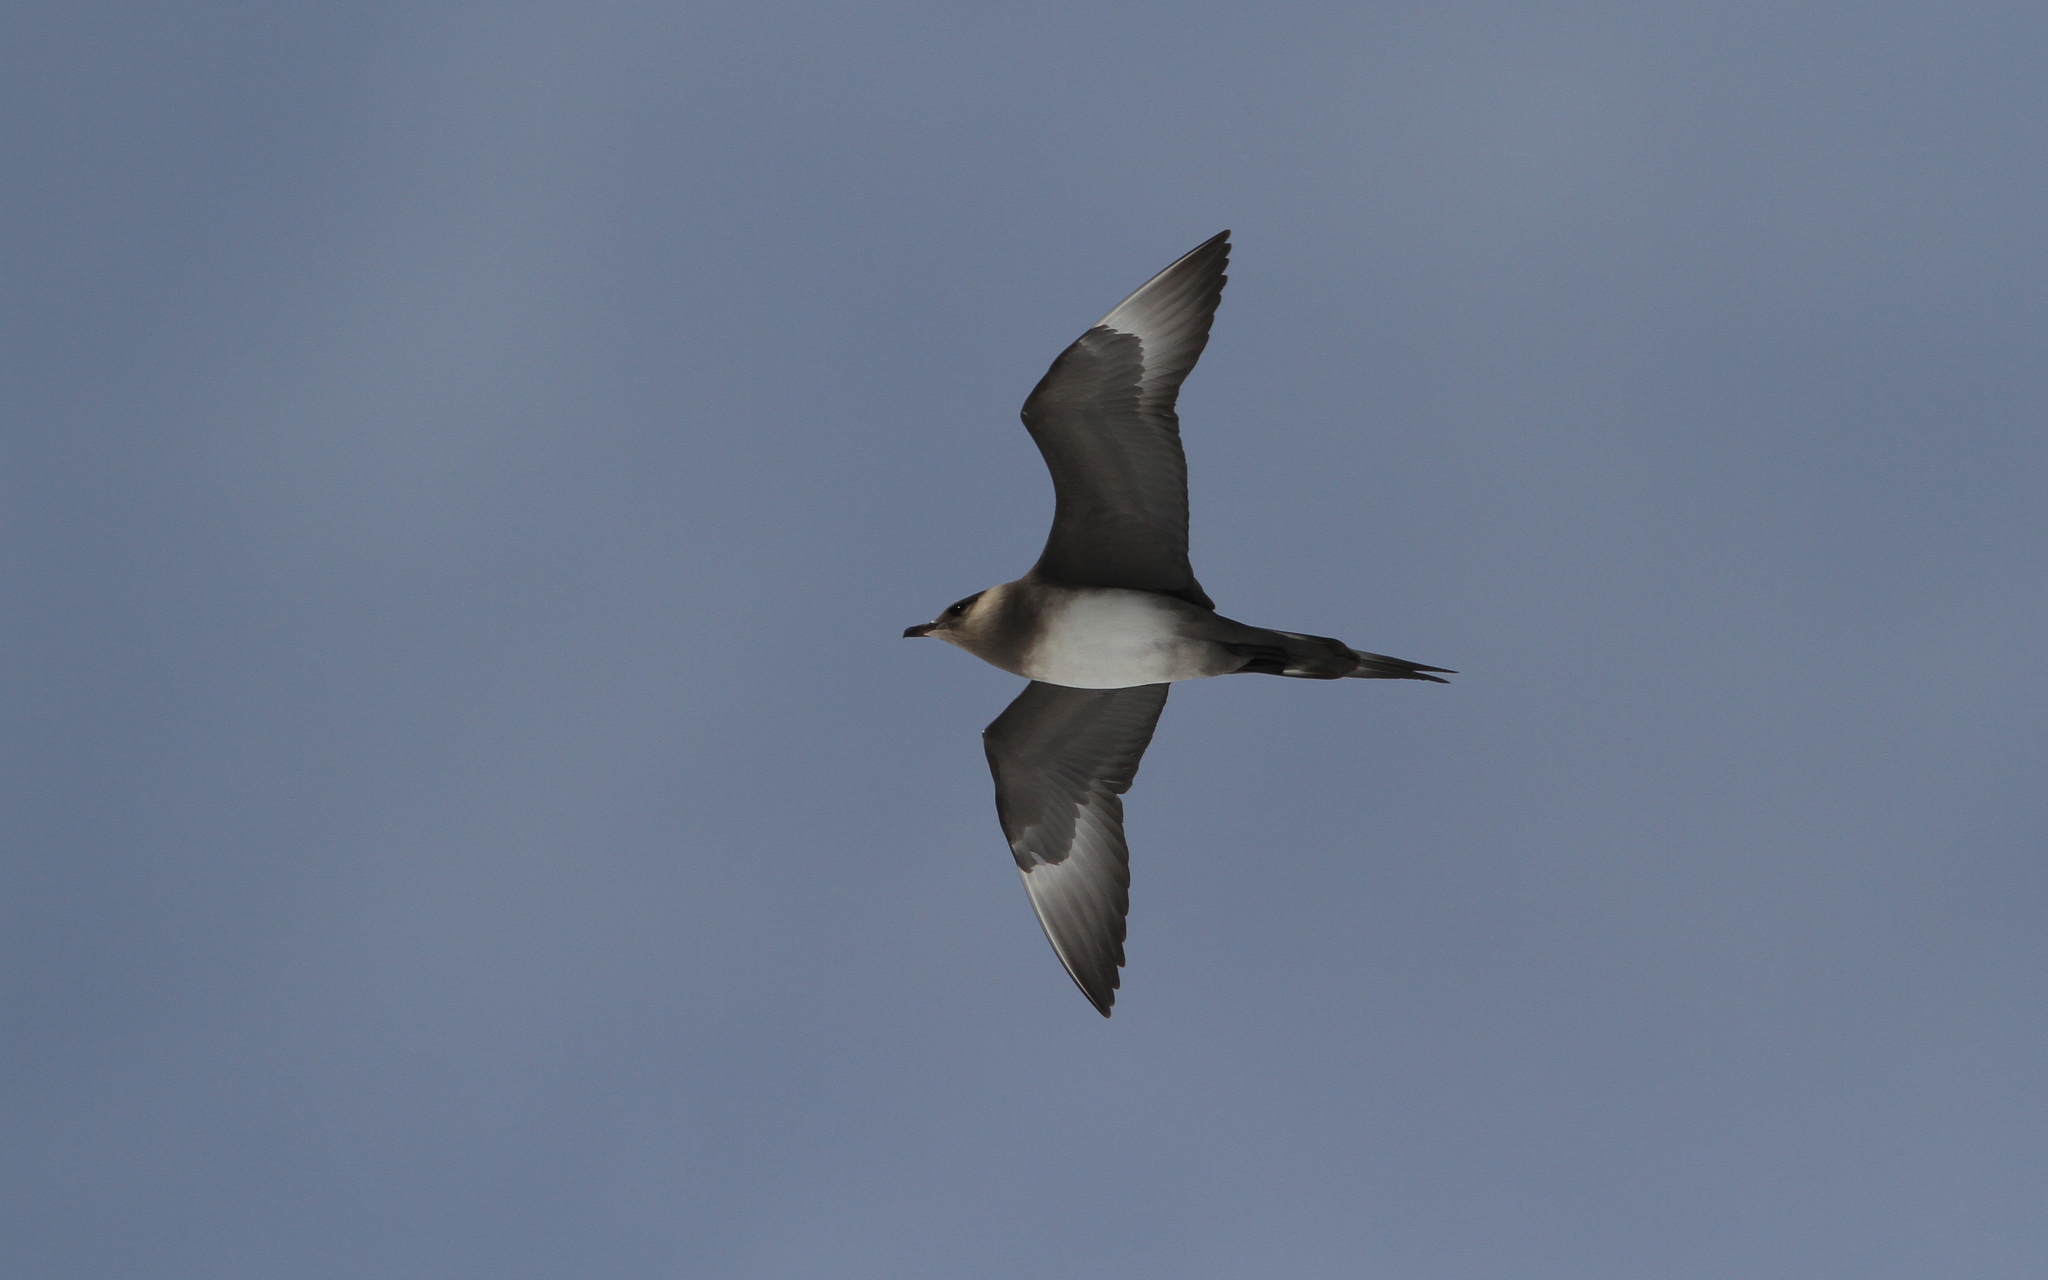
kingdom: Animalia
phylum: Chordata
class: Aves
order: Charadriiformes
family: Stercorariidae
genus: Stercorarius
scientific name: Stercorarius parasiticus
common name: Parasitic jaeger
